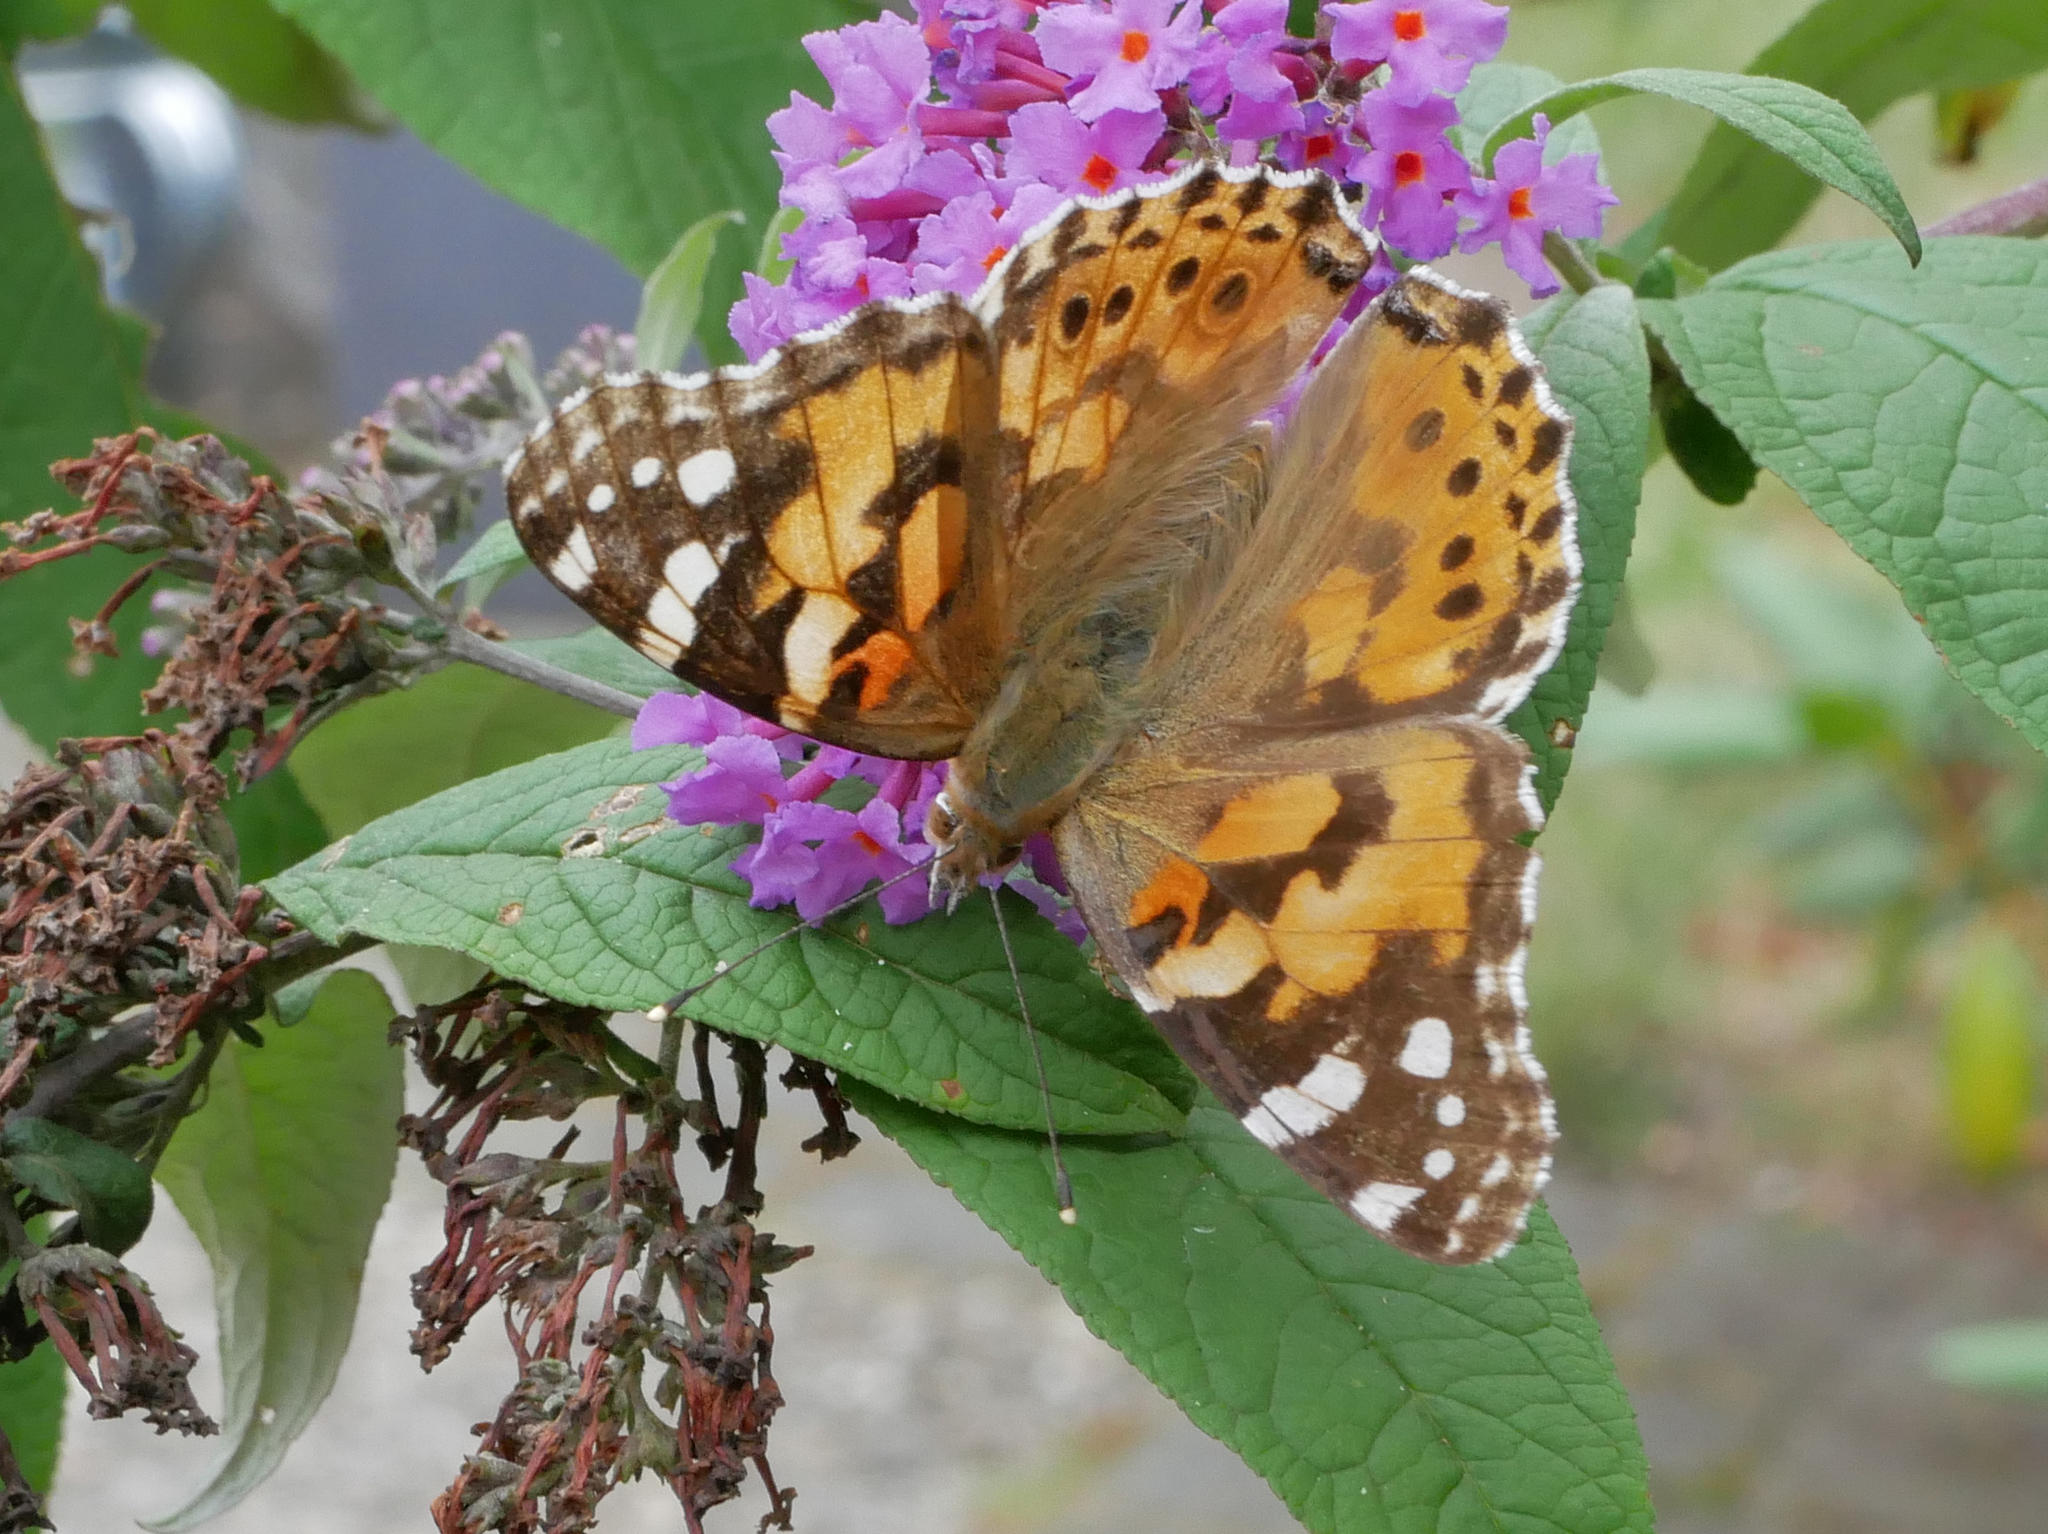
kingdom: Animalia
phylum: Arthropoda
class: Insecta
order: Lepidoptera
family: Nymphalidae
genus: Vanessa
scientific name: Vanessa cardui
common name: Painted lady
